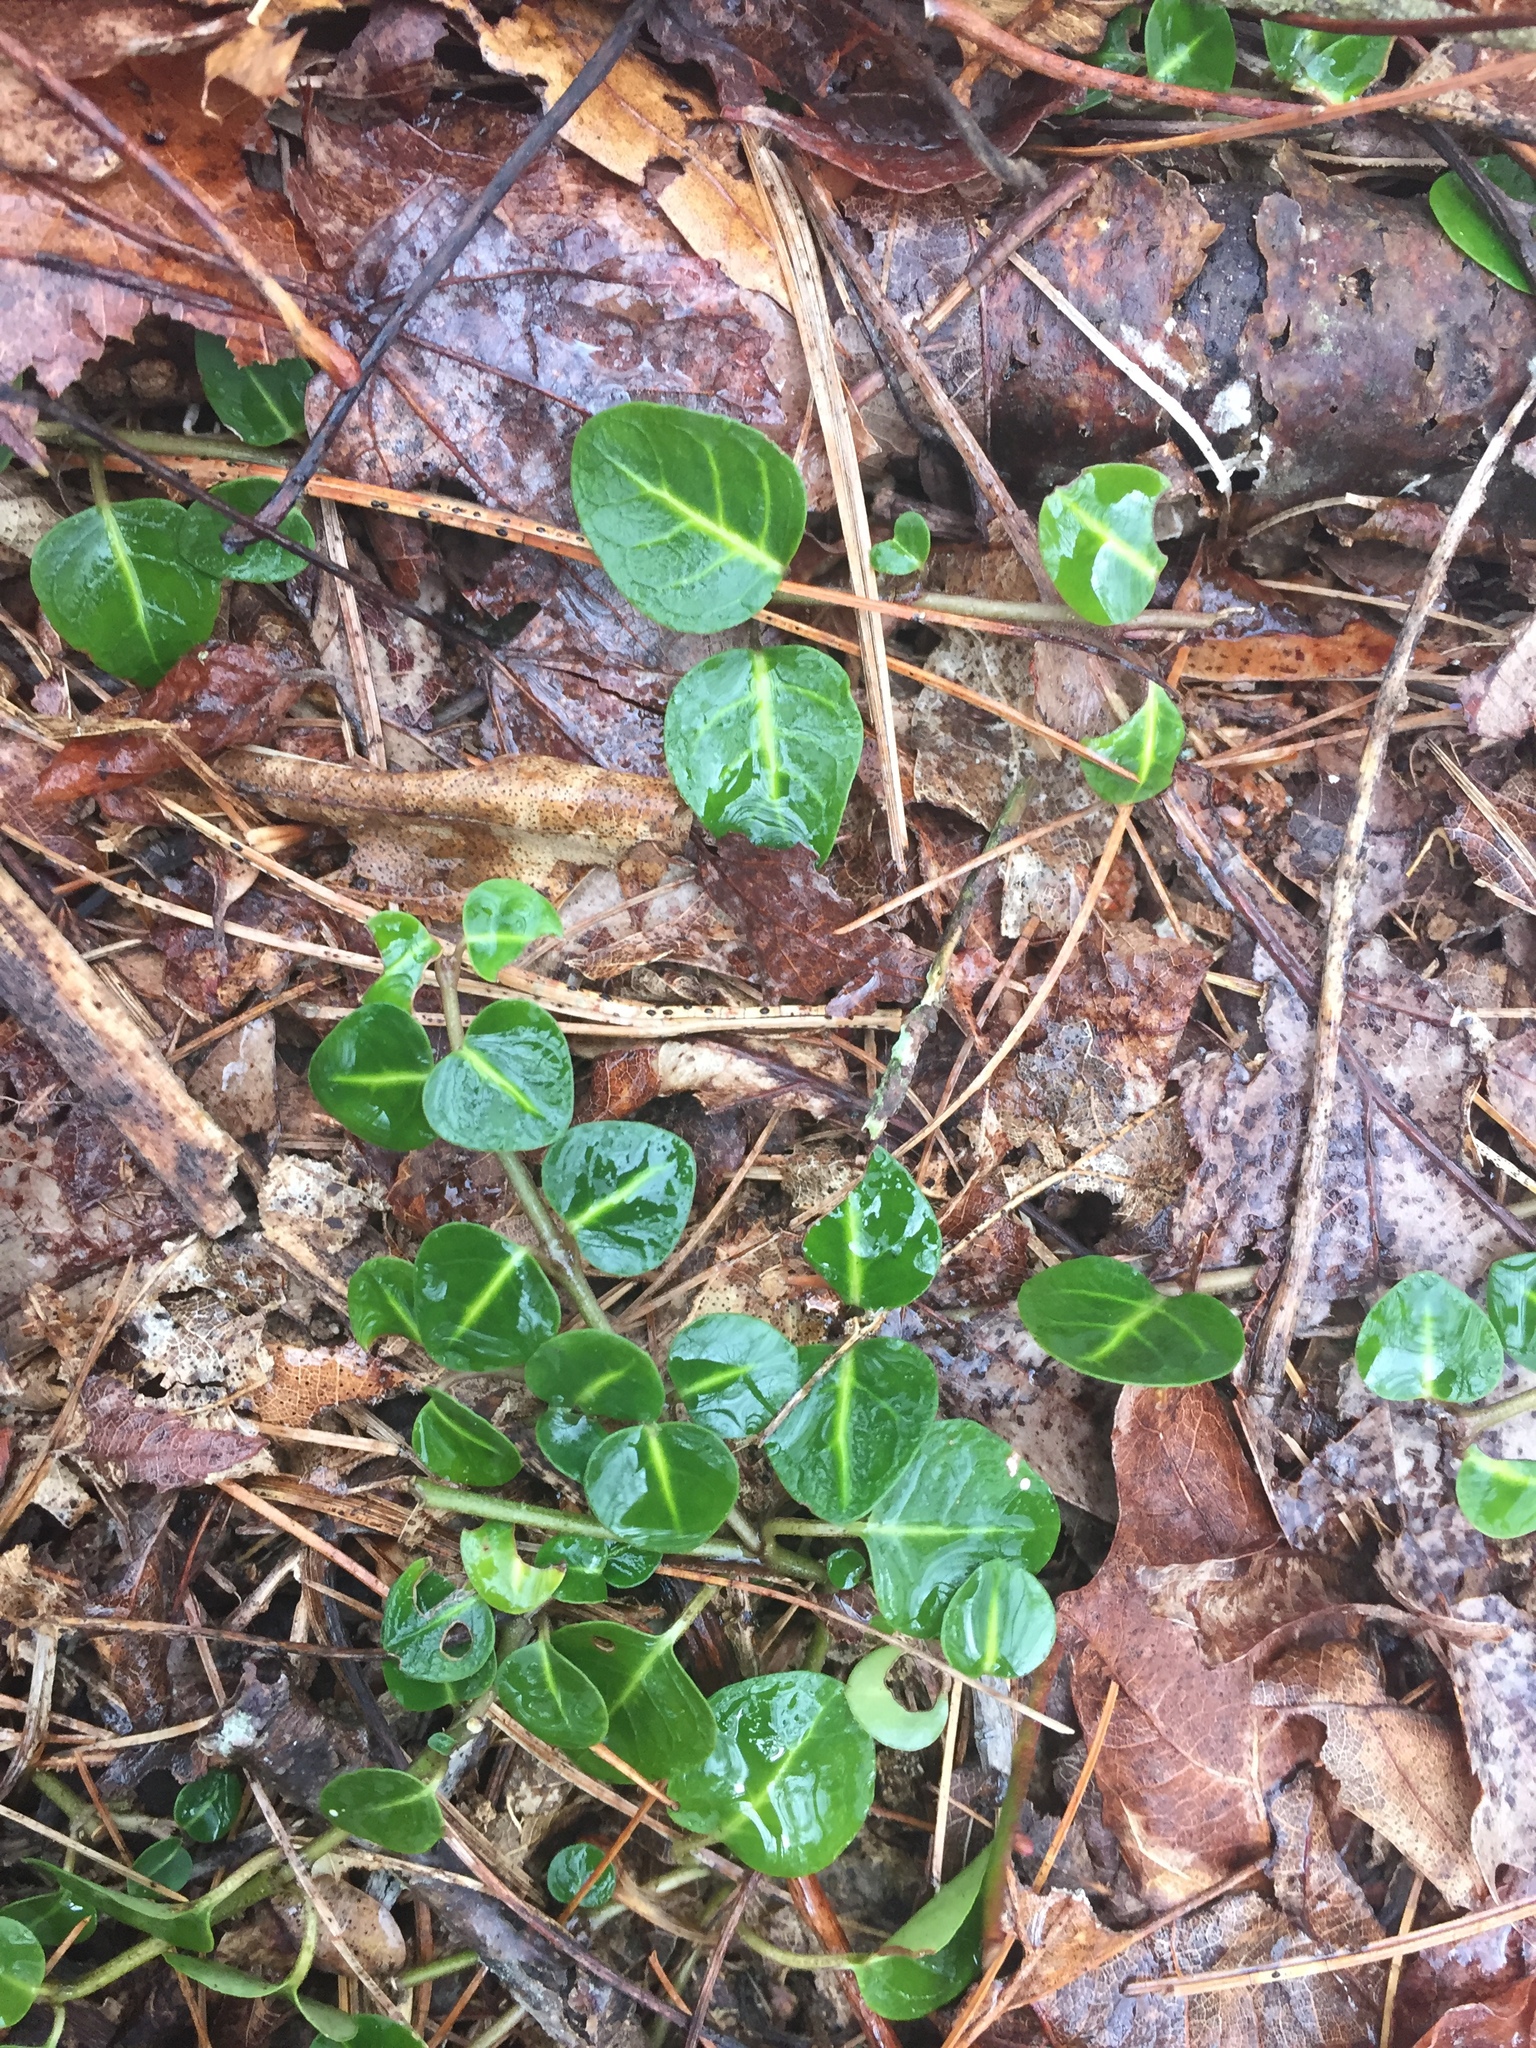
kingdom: Plantae
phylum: Tracheophyta
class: Magnoliopsida
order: Gentianales
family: Rubiaceae
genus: Mitchella
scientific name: Mitchella repens
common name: Partridge-berry
